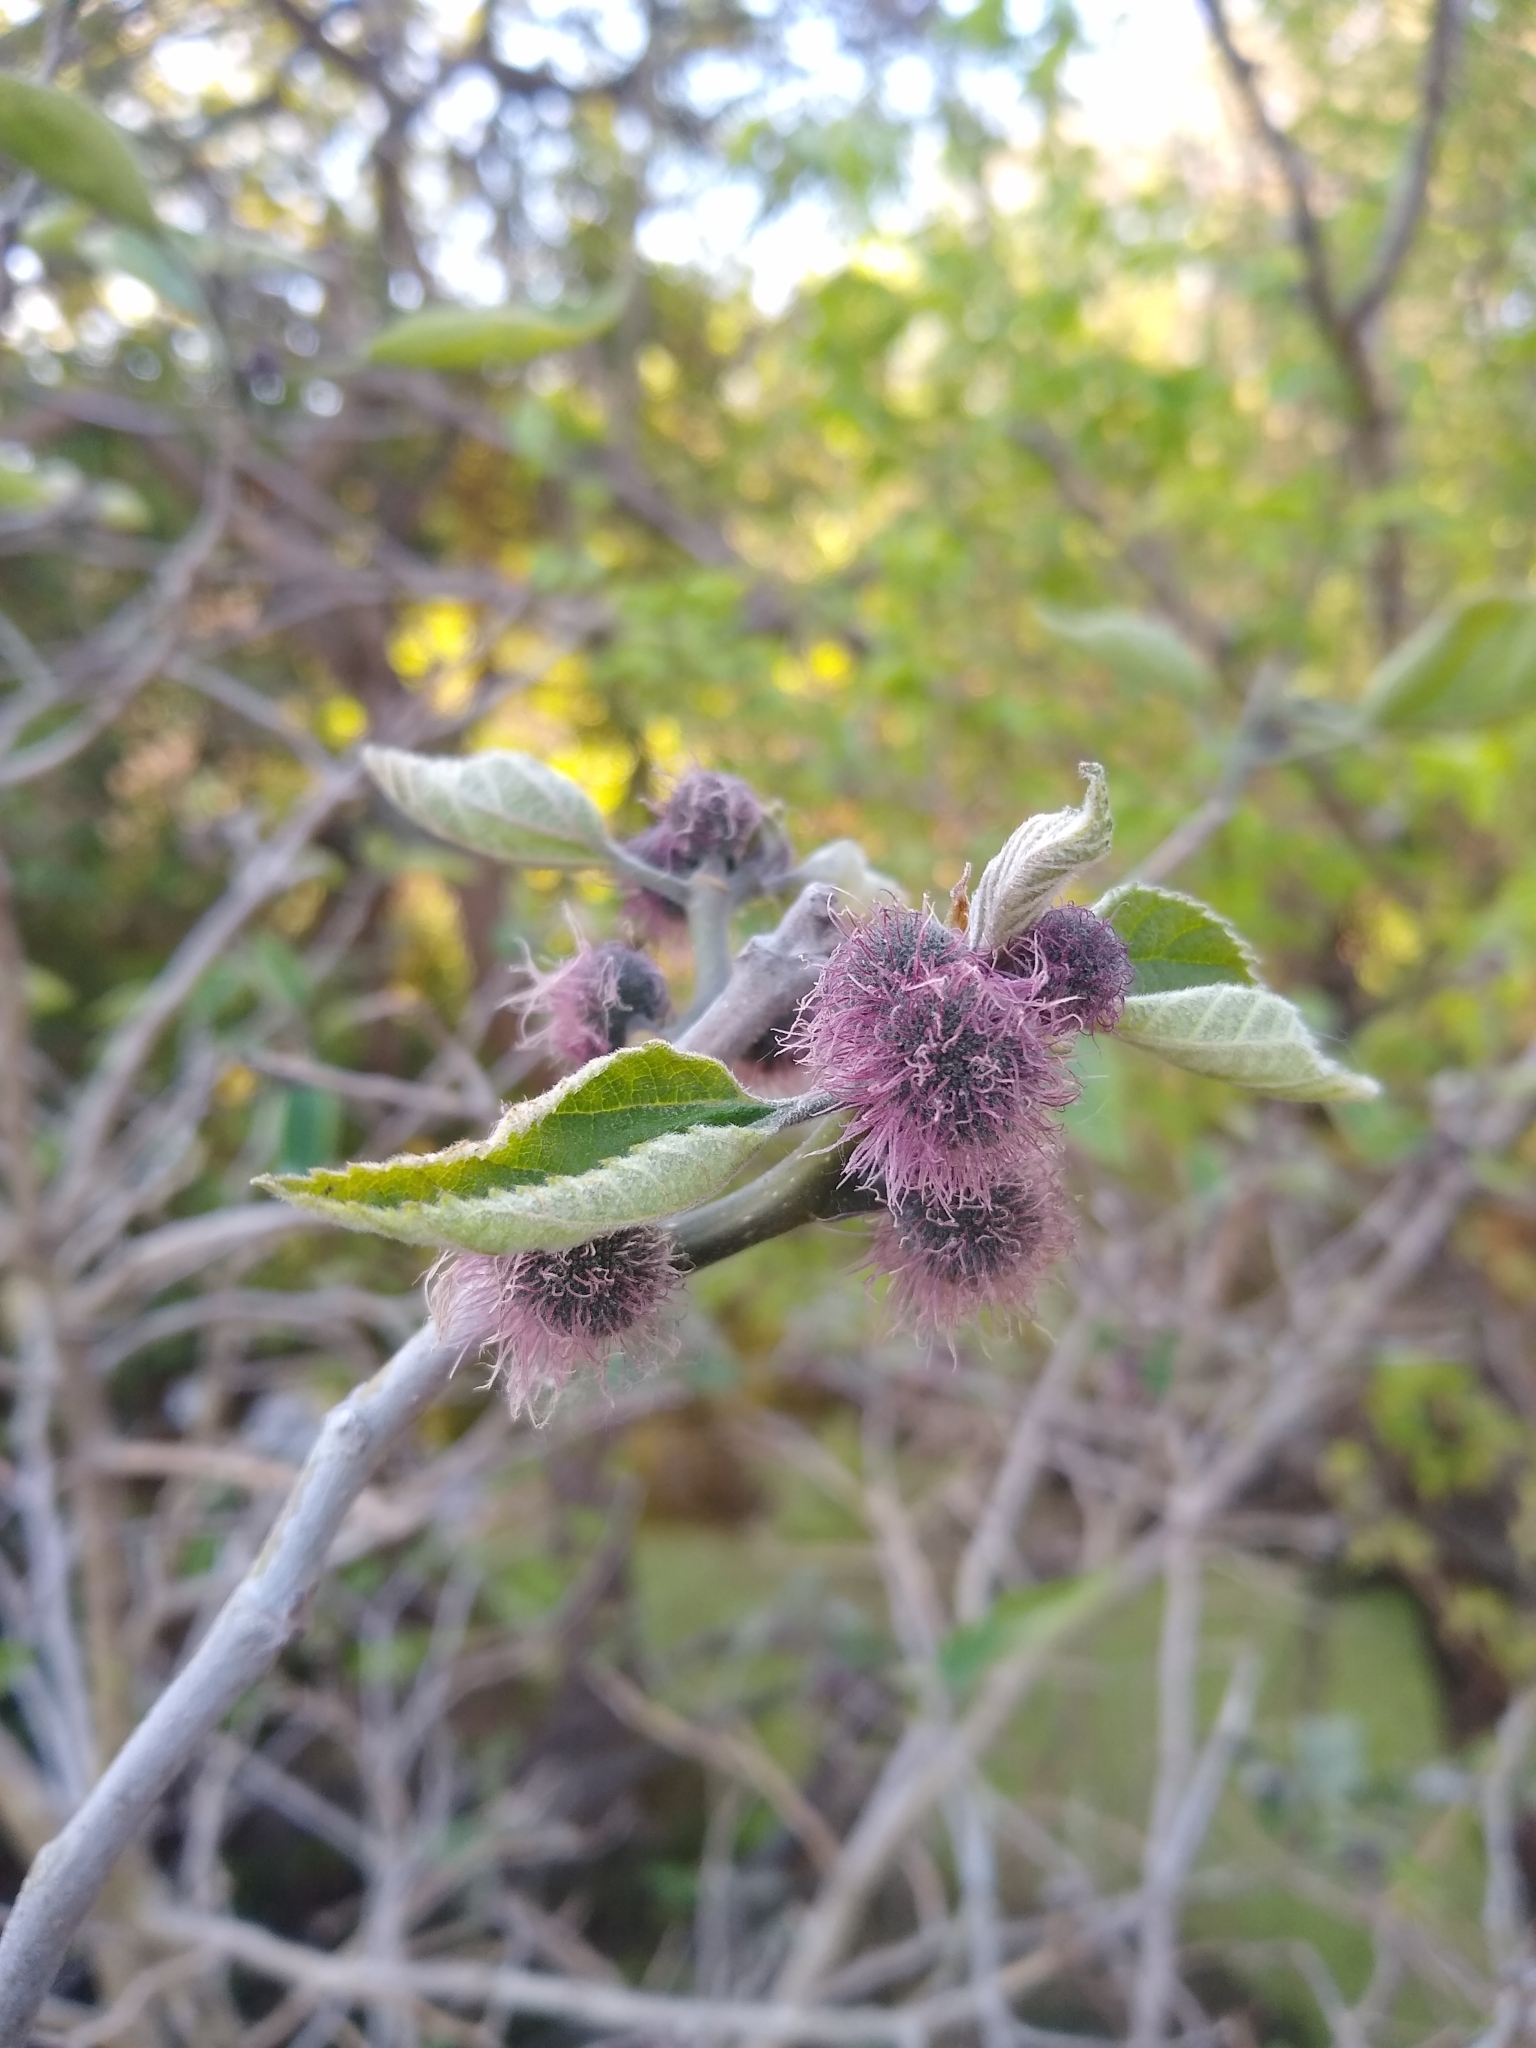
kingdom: Plantae
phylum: Tracheophyta
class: Magnoliopsida
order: Rosales
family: Moraceae
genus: Broussonetia
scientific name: Broussonetia papyrifera
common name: Paper mulberry
